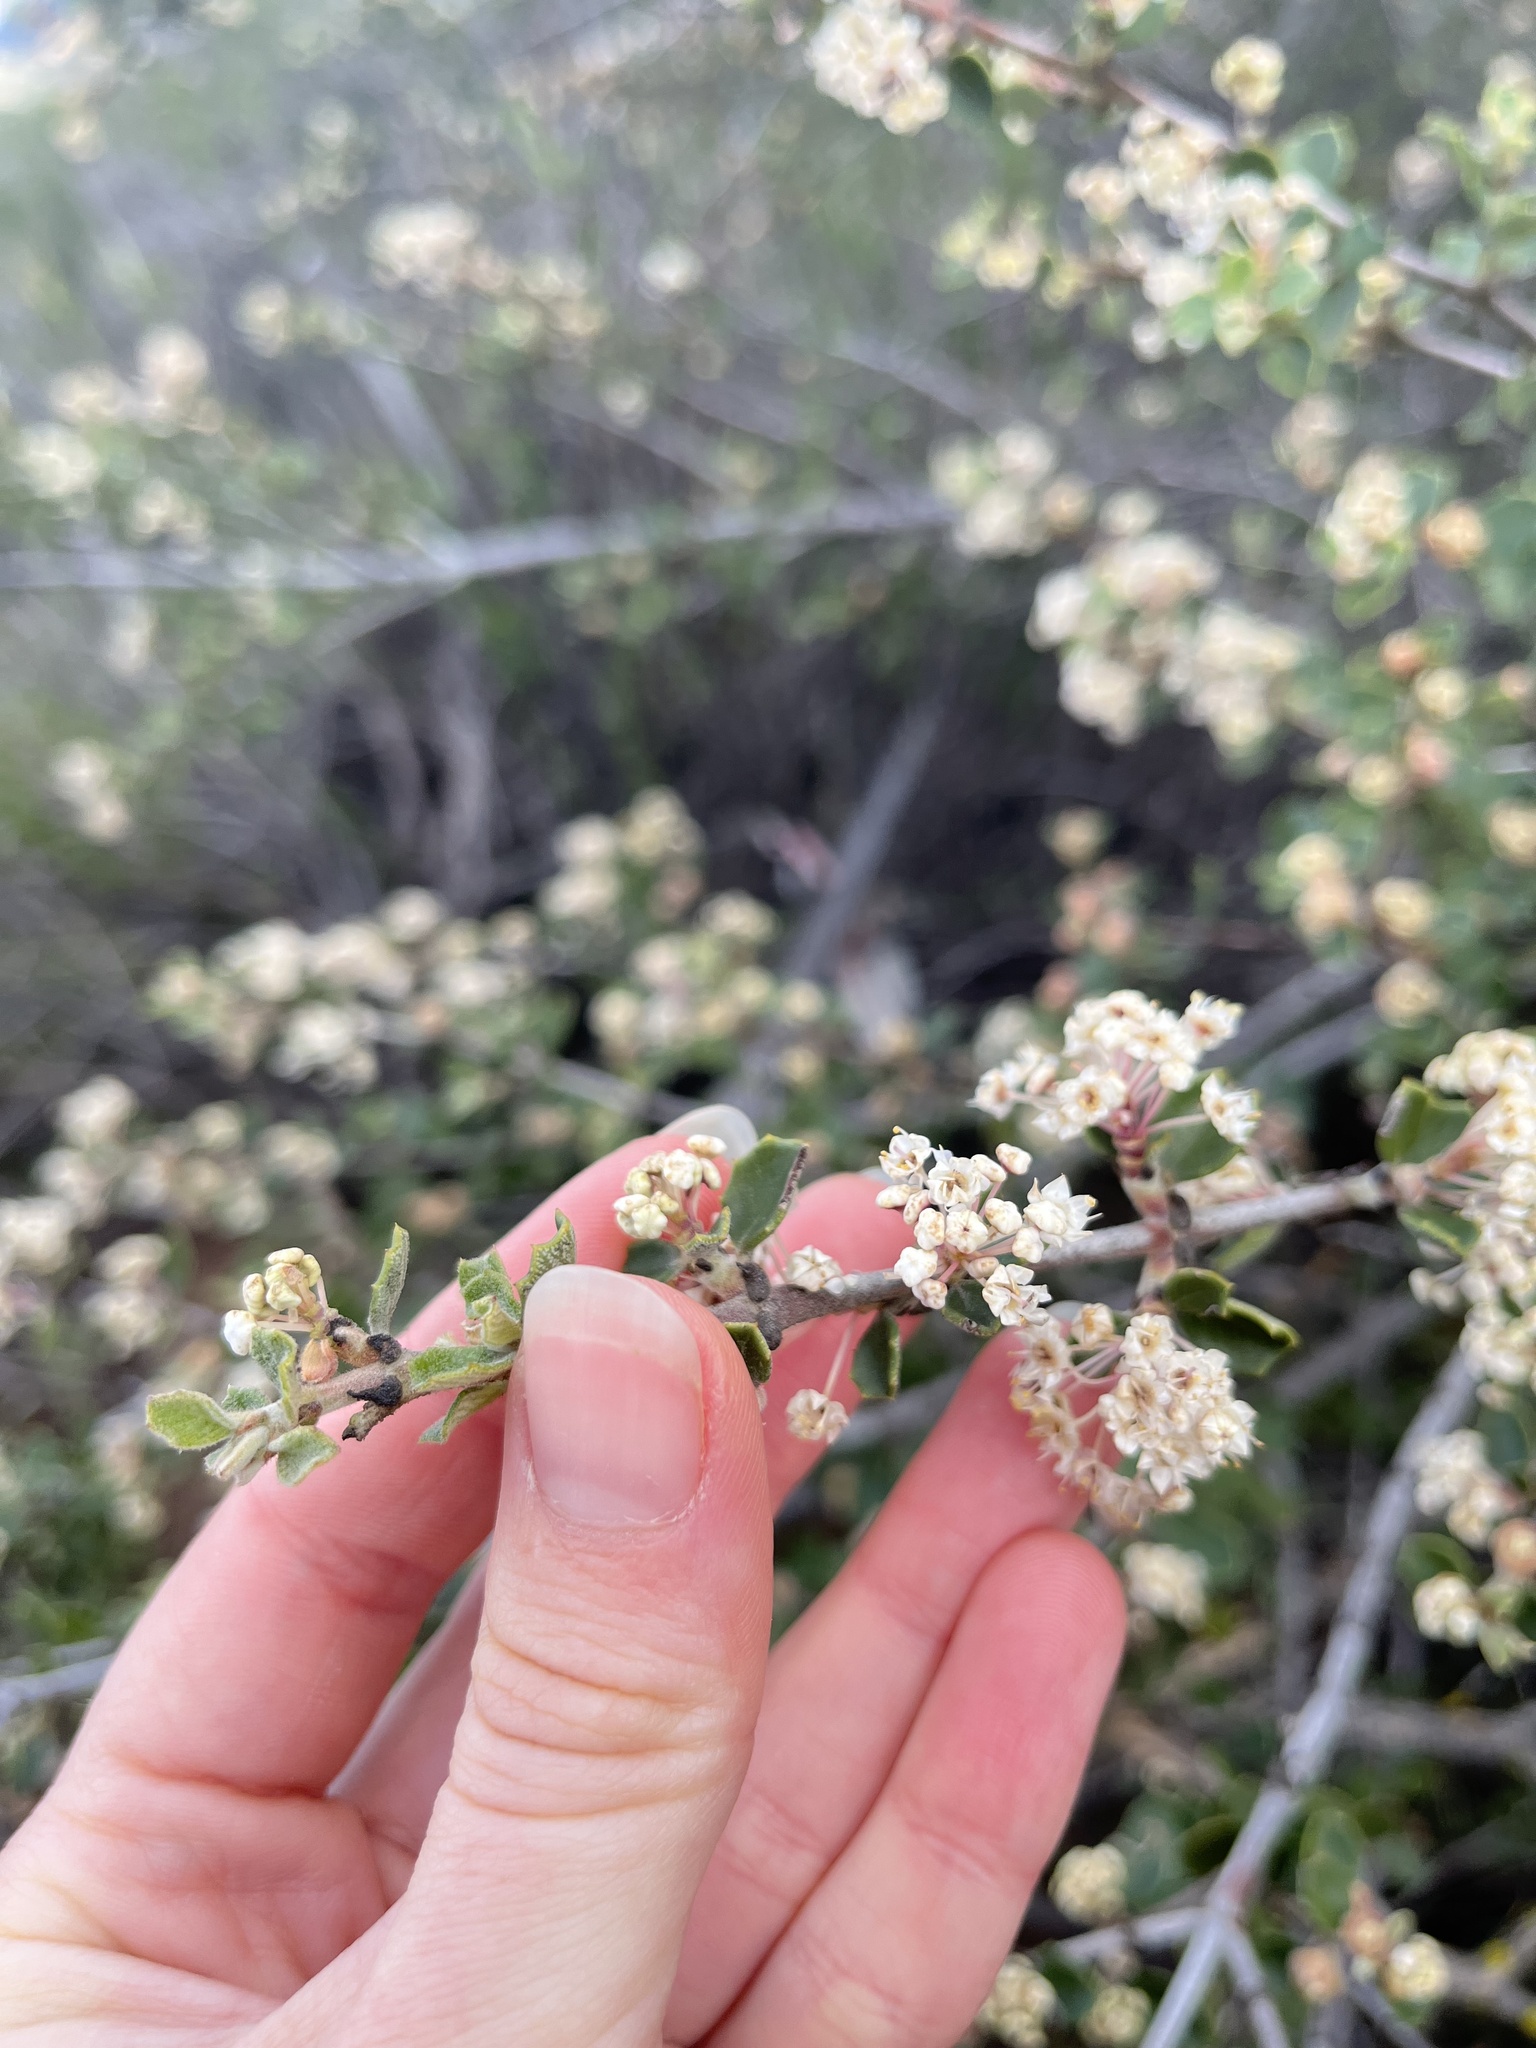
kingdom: Plantae
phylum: Tracheophyta
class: Magnoliopsida
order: Rosales
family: Rhamnaceae
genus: Ceanothus
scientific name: Ceanothus perplexans
